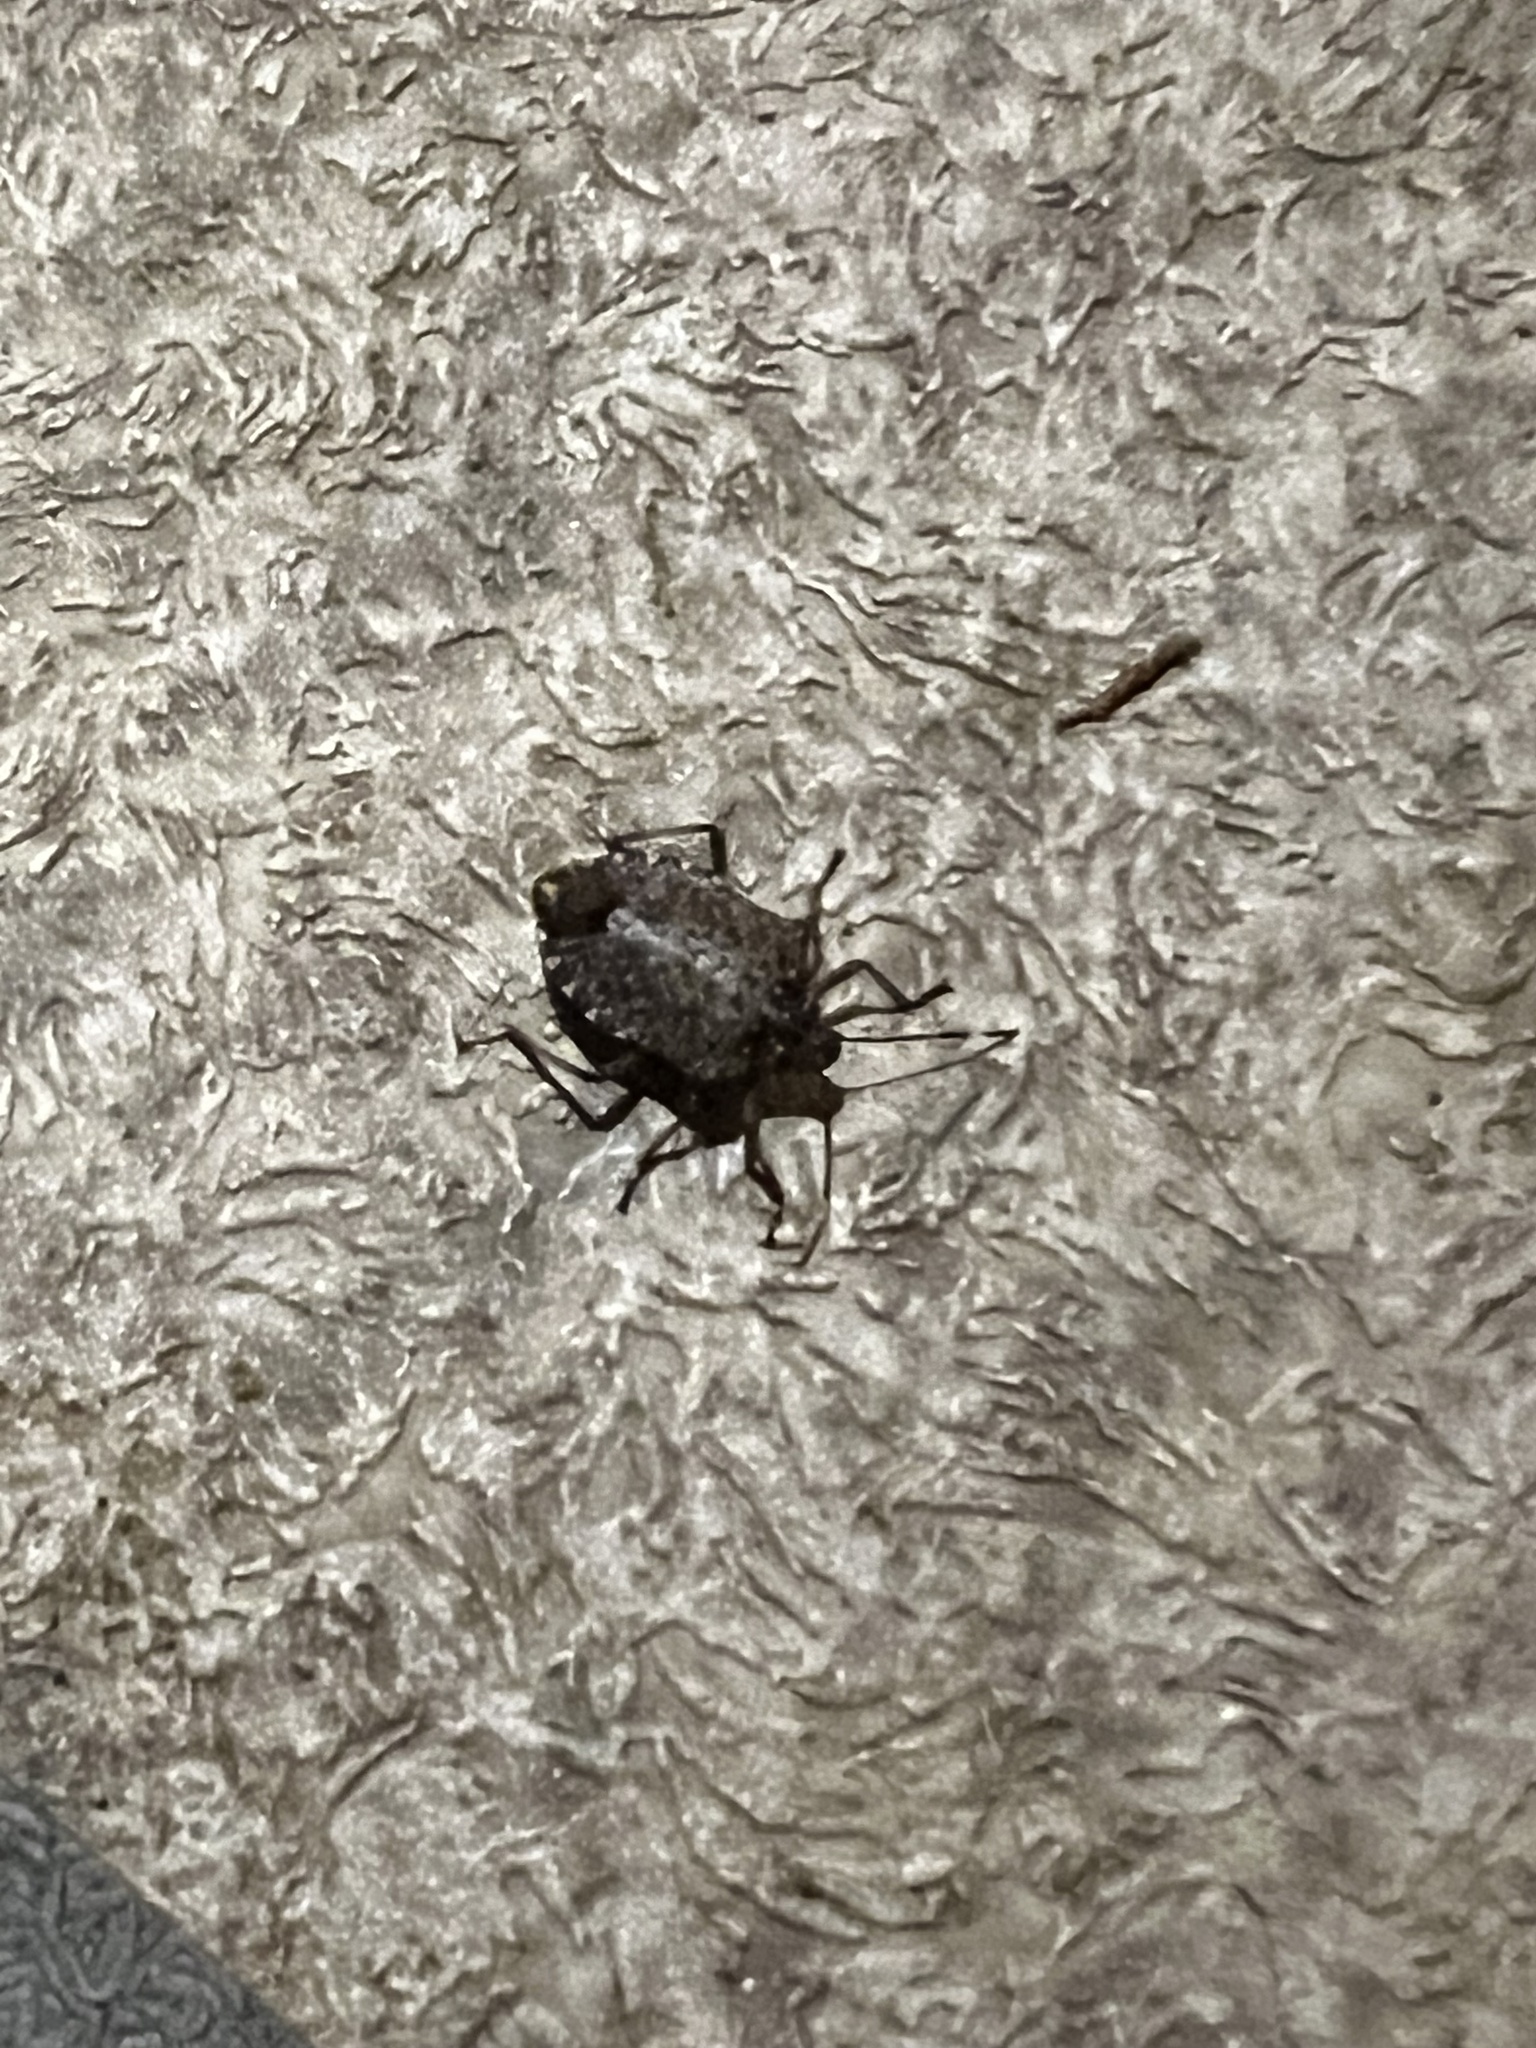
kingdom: Animalia
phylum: Arthropoda
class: Insecta
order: Hemiptera
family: Pentatomidae
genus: Halyomorpha
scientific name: Halyomorpha halys
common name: Brown marmorated stink bug
